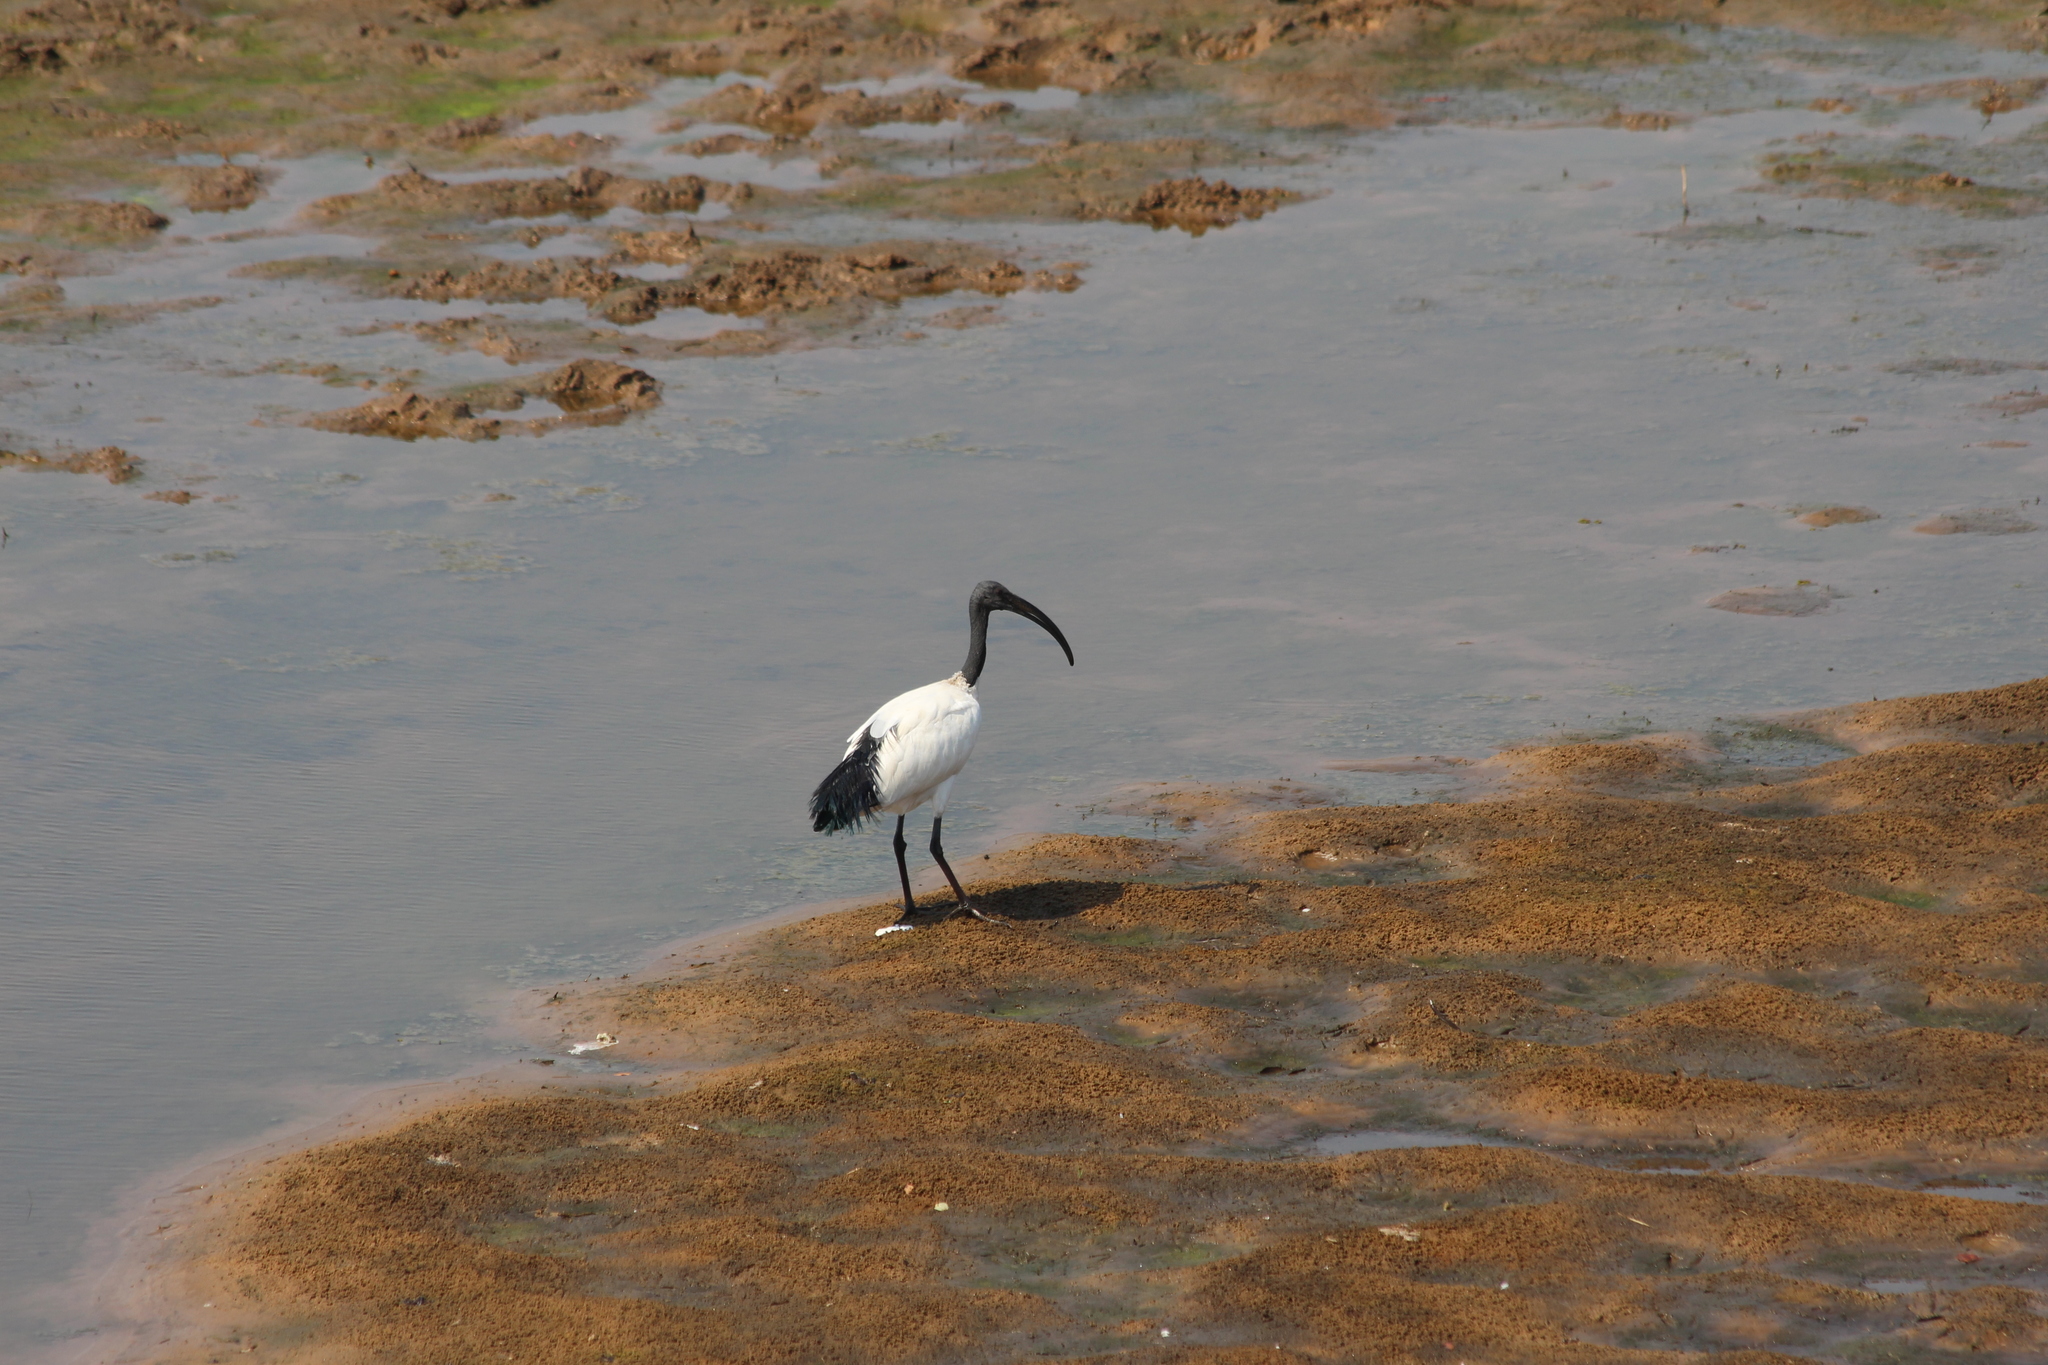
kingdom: Animalia
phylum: Chordata
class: Aves
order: Pelecaniformes
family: Threskiornithidae
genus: Threskiornis
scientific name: Threskiornis aethiopicus
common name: Sacred ibis
